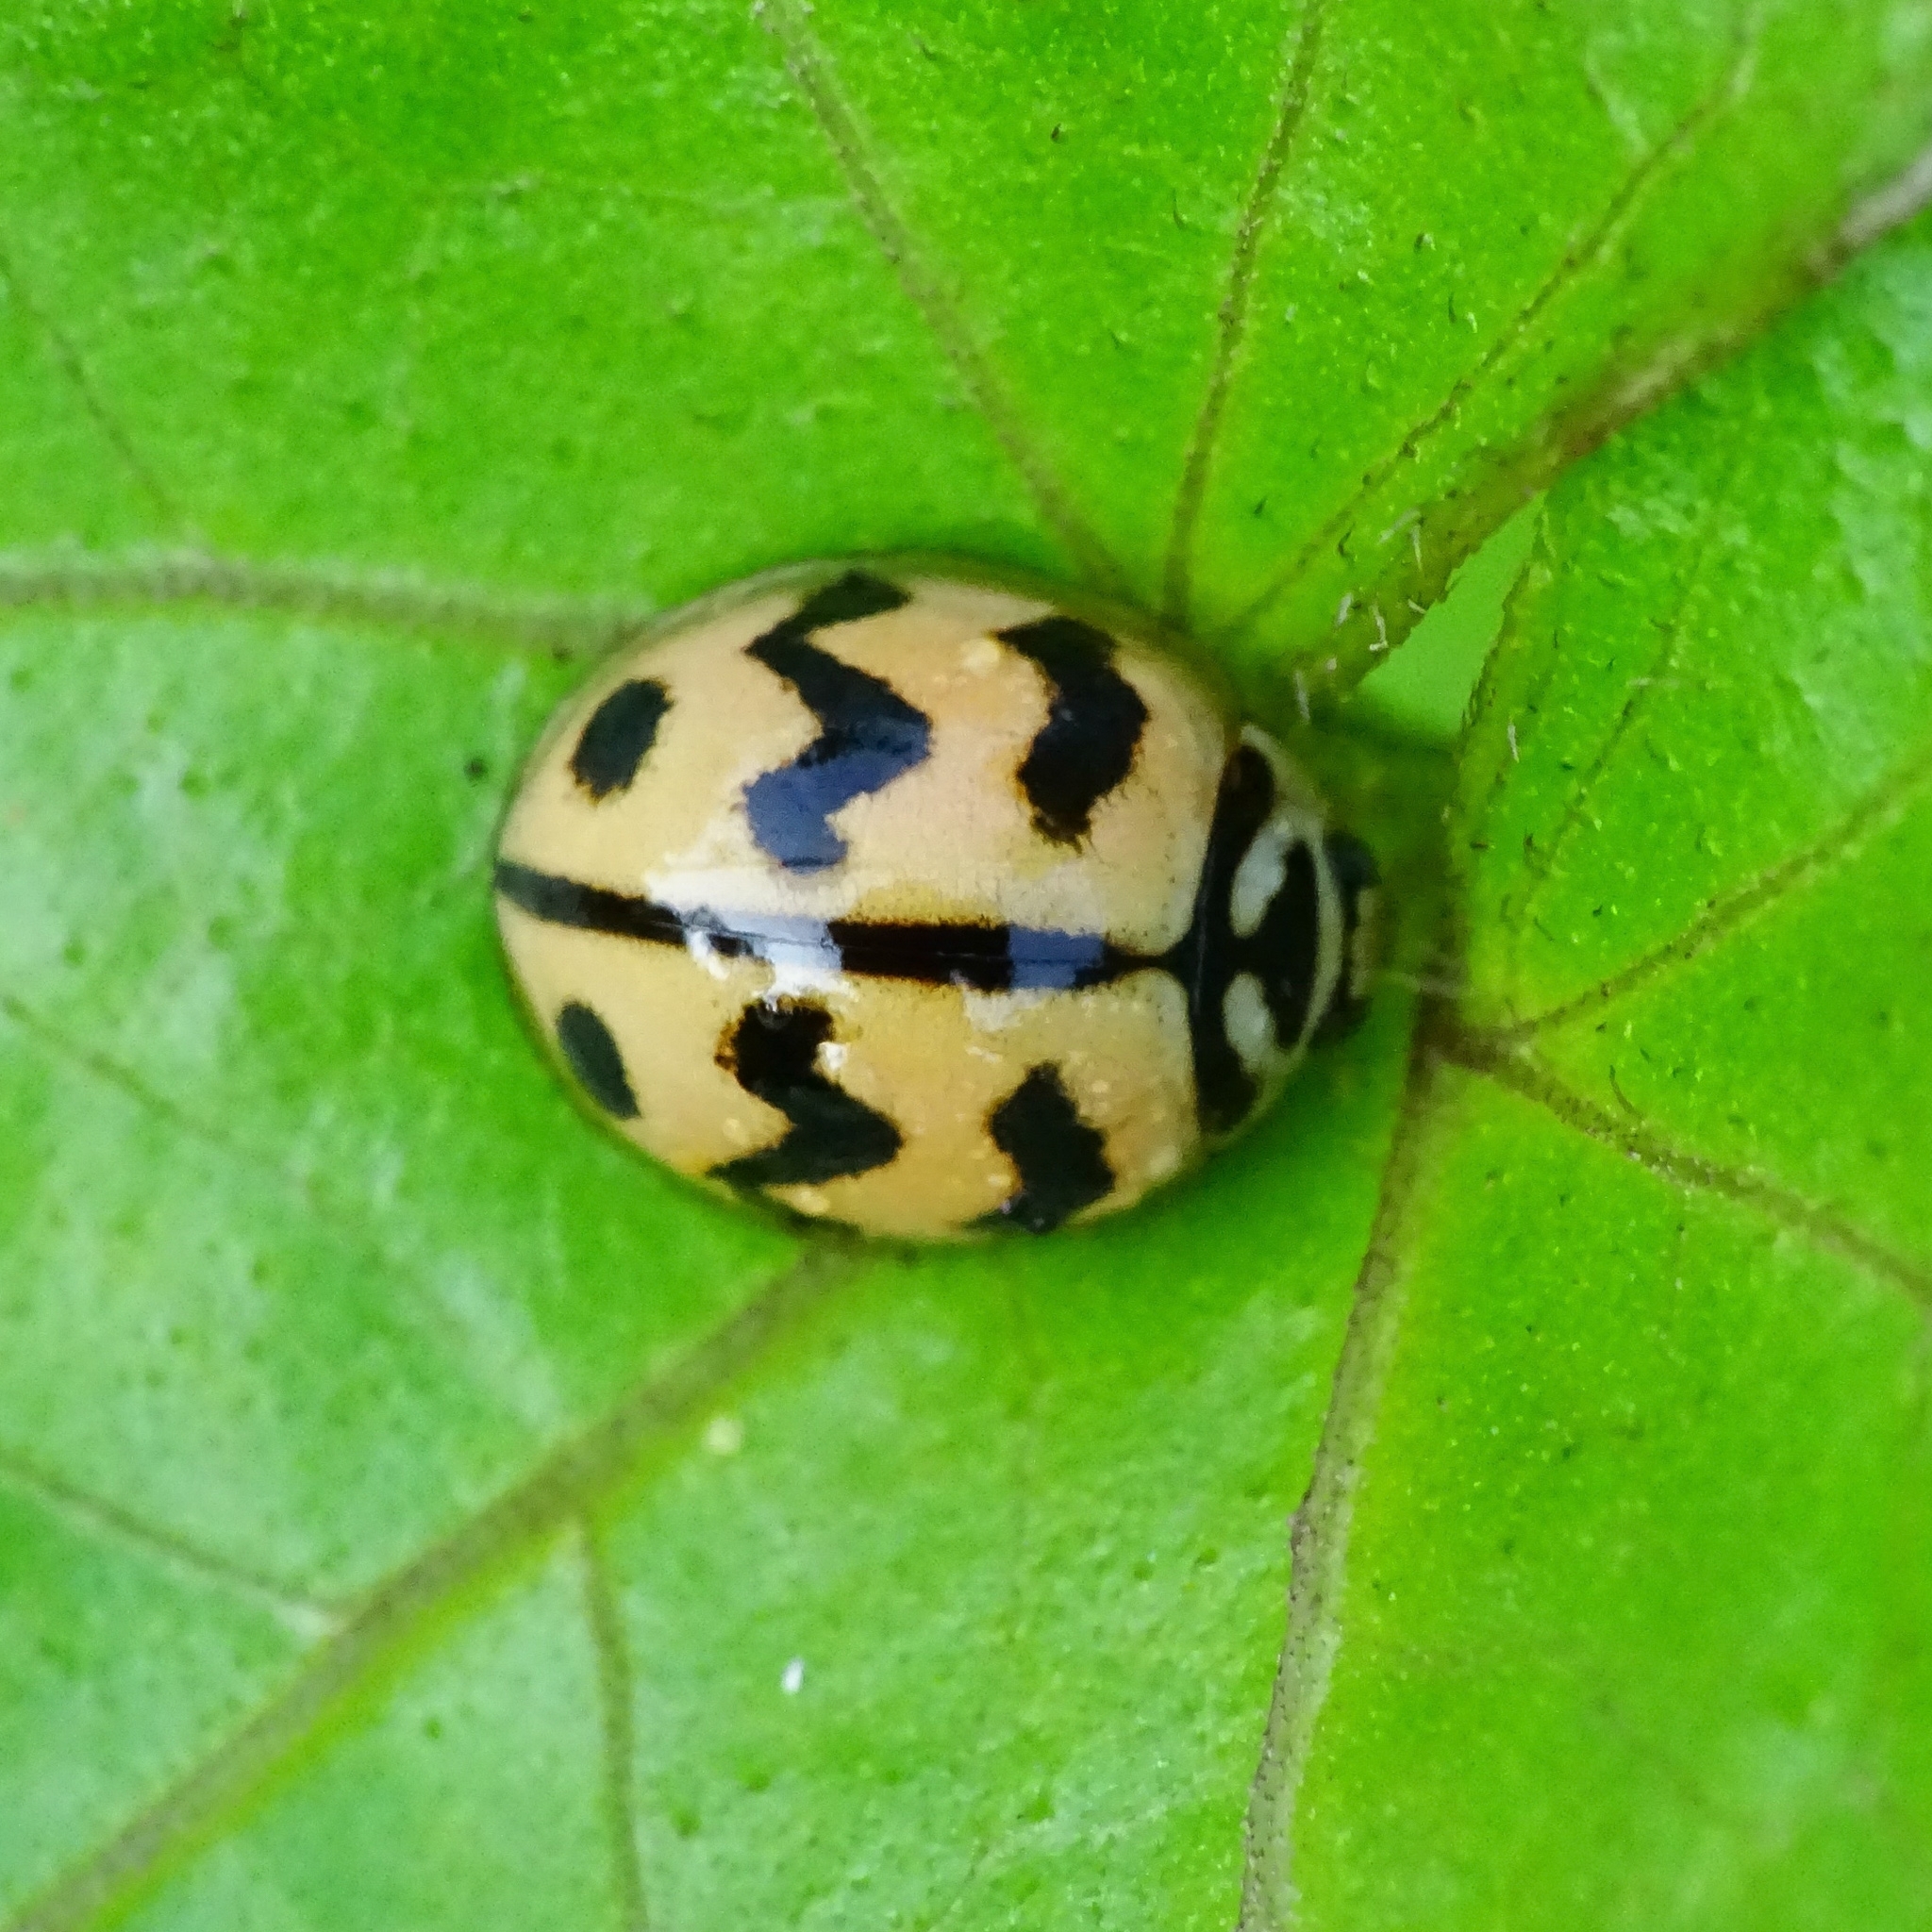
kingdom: Animalia
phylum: Arthropoda
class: Insecta
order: Coleoptera
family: Coccinellidae
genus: Cheilomenes
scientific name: Cheilomenes sexmaculata
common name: Ladybird beetle
